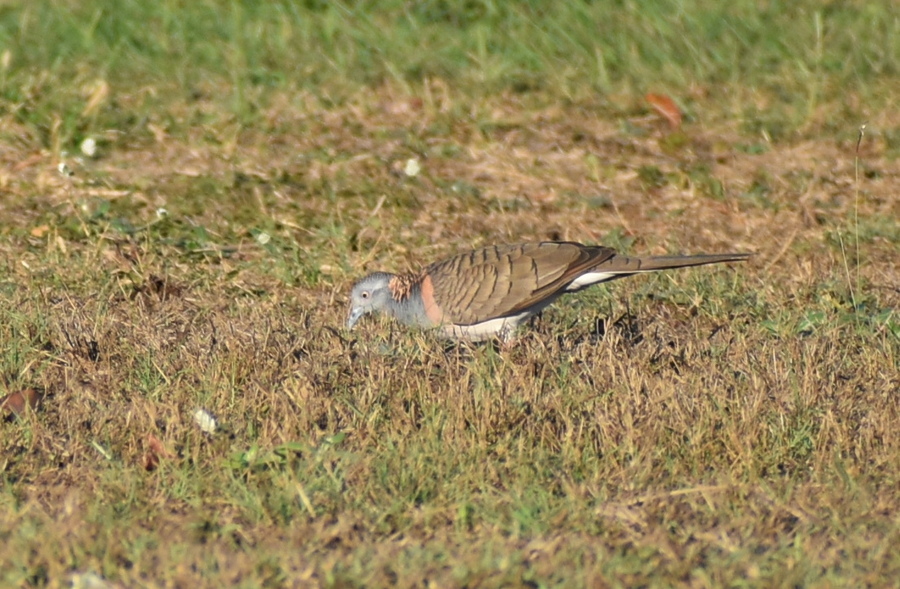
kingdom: Animalia
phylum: Chordata
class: Aves
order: Columbiformes
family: Columbidae
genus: Geopelia
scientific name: Geopelia humeralis
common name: Bar-shouldered dove
